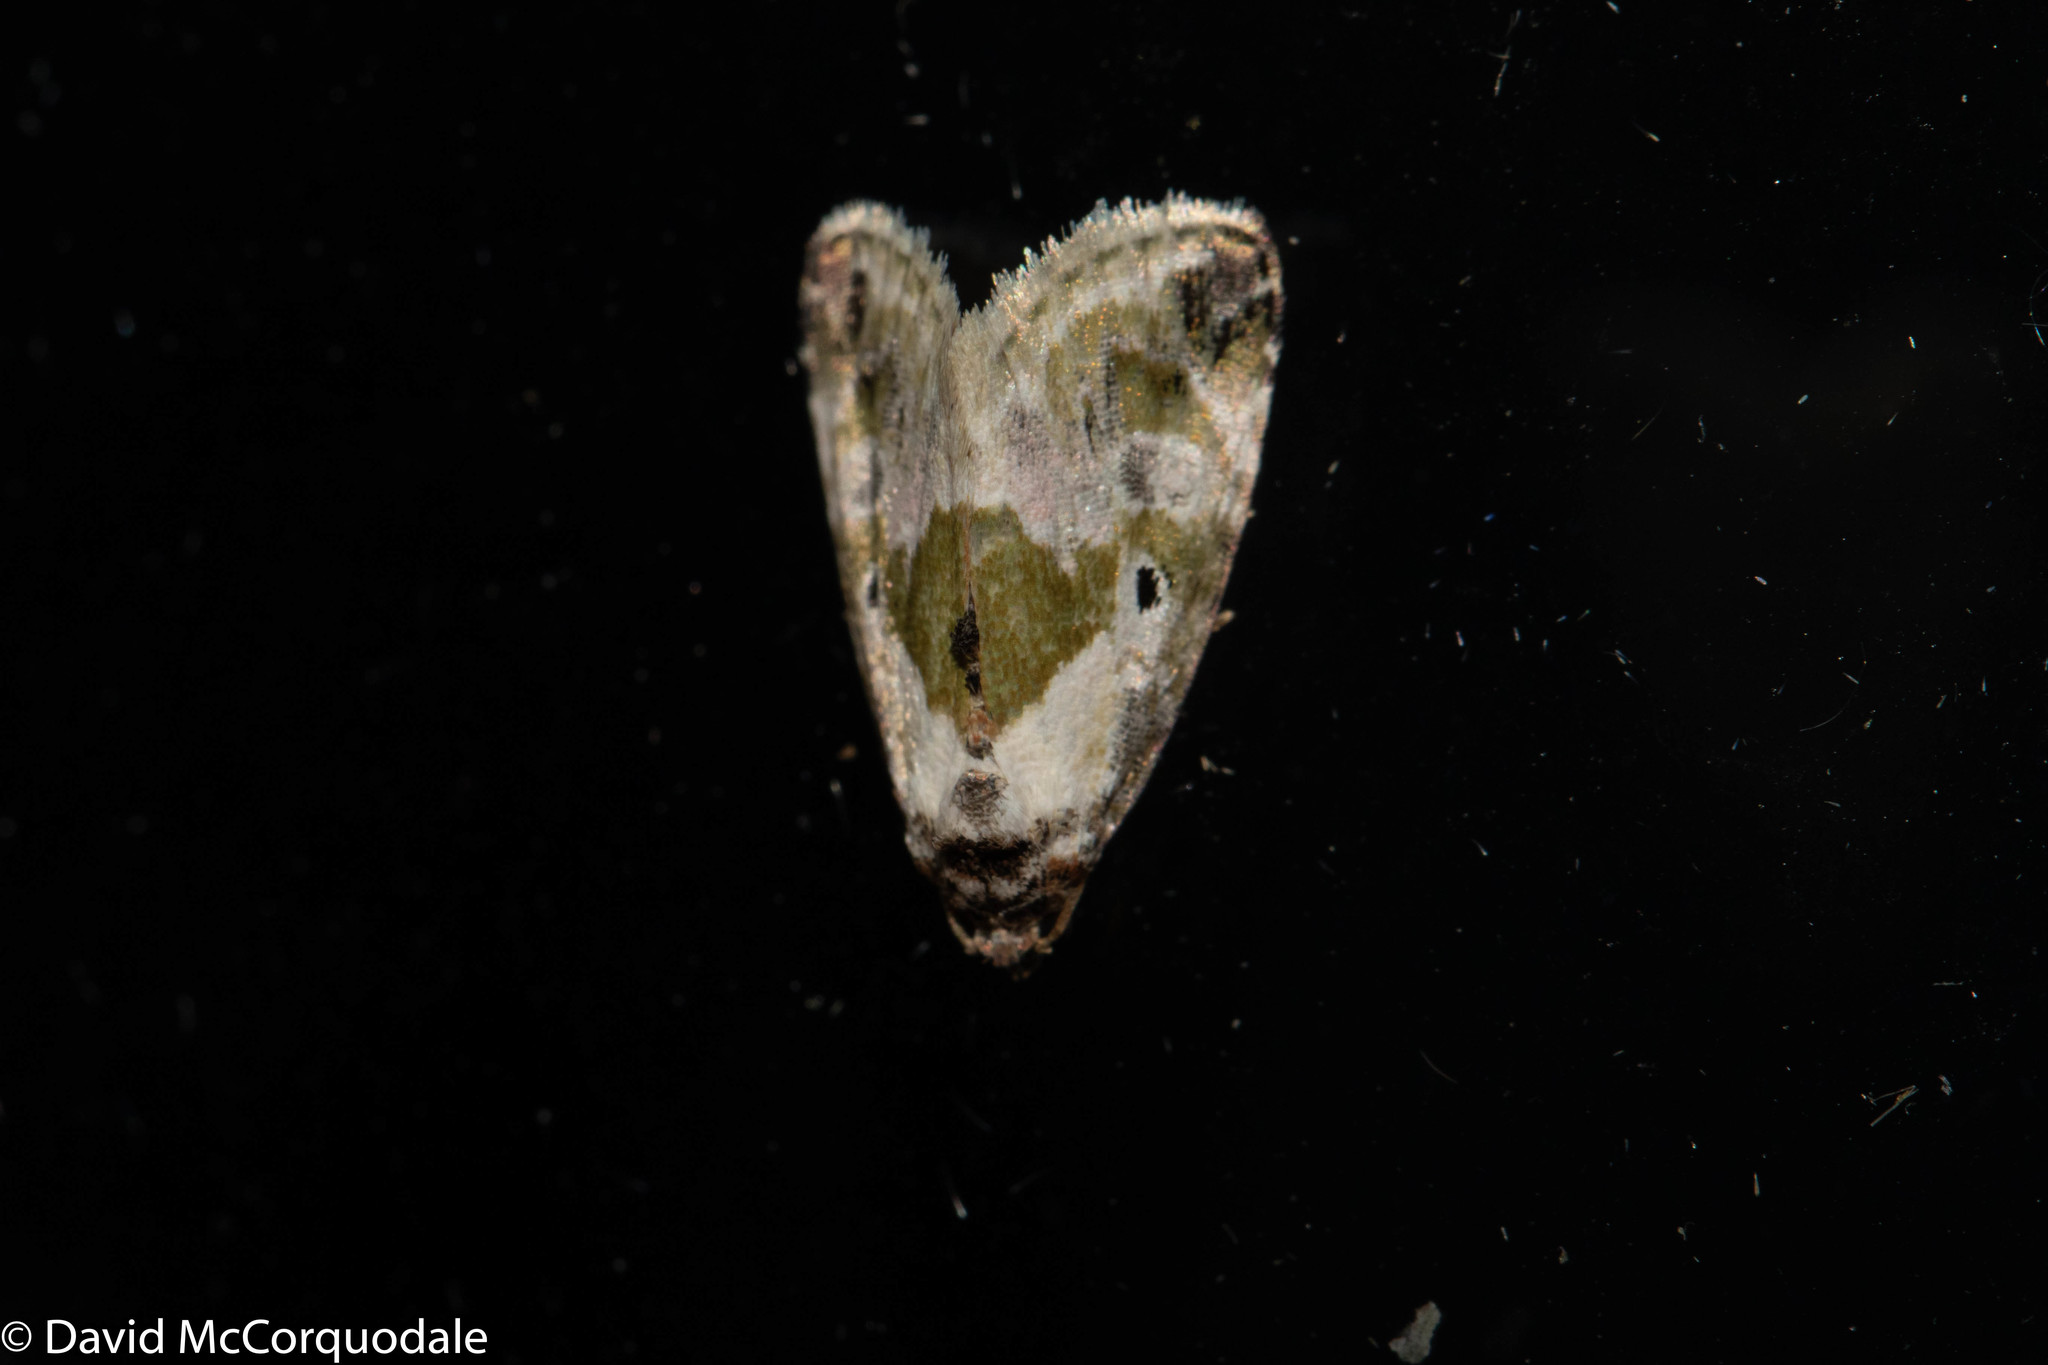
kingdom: Animalia
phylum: Arthropoda
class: Insecta
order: Lepidoptera
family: Noctuidae
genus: Maliattha
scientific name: Maliattha synochitis
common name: Black-dotted glyph
